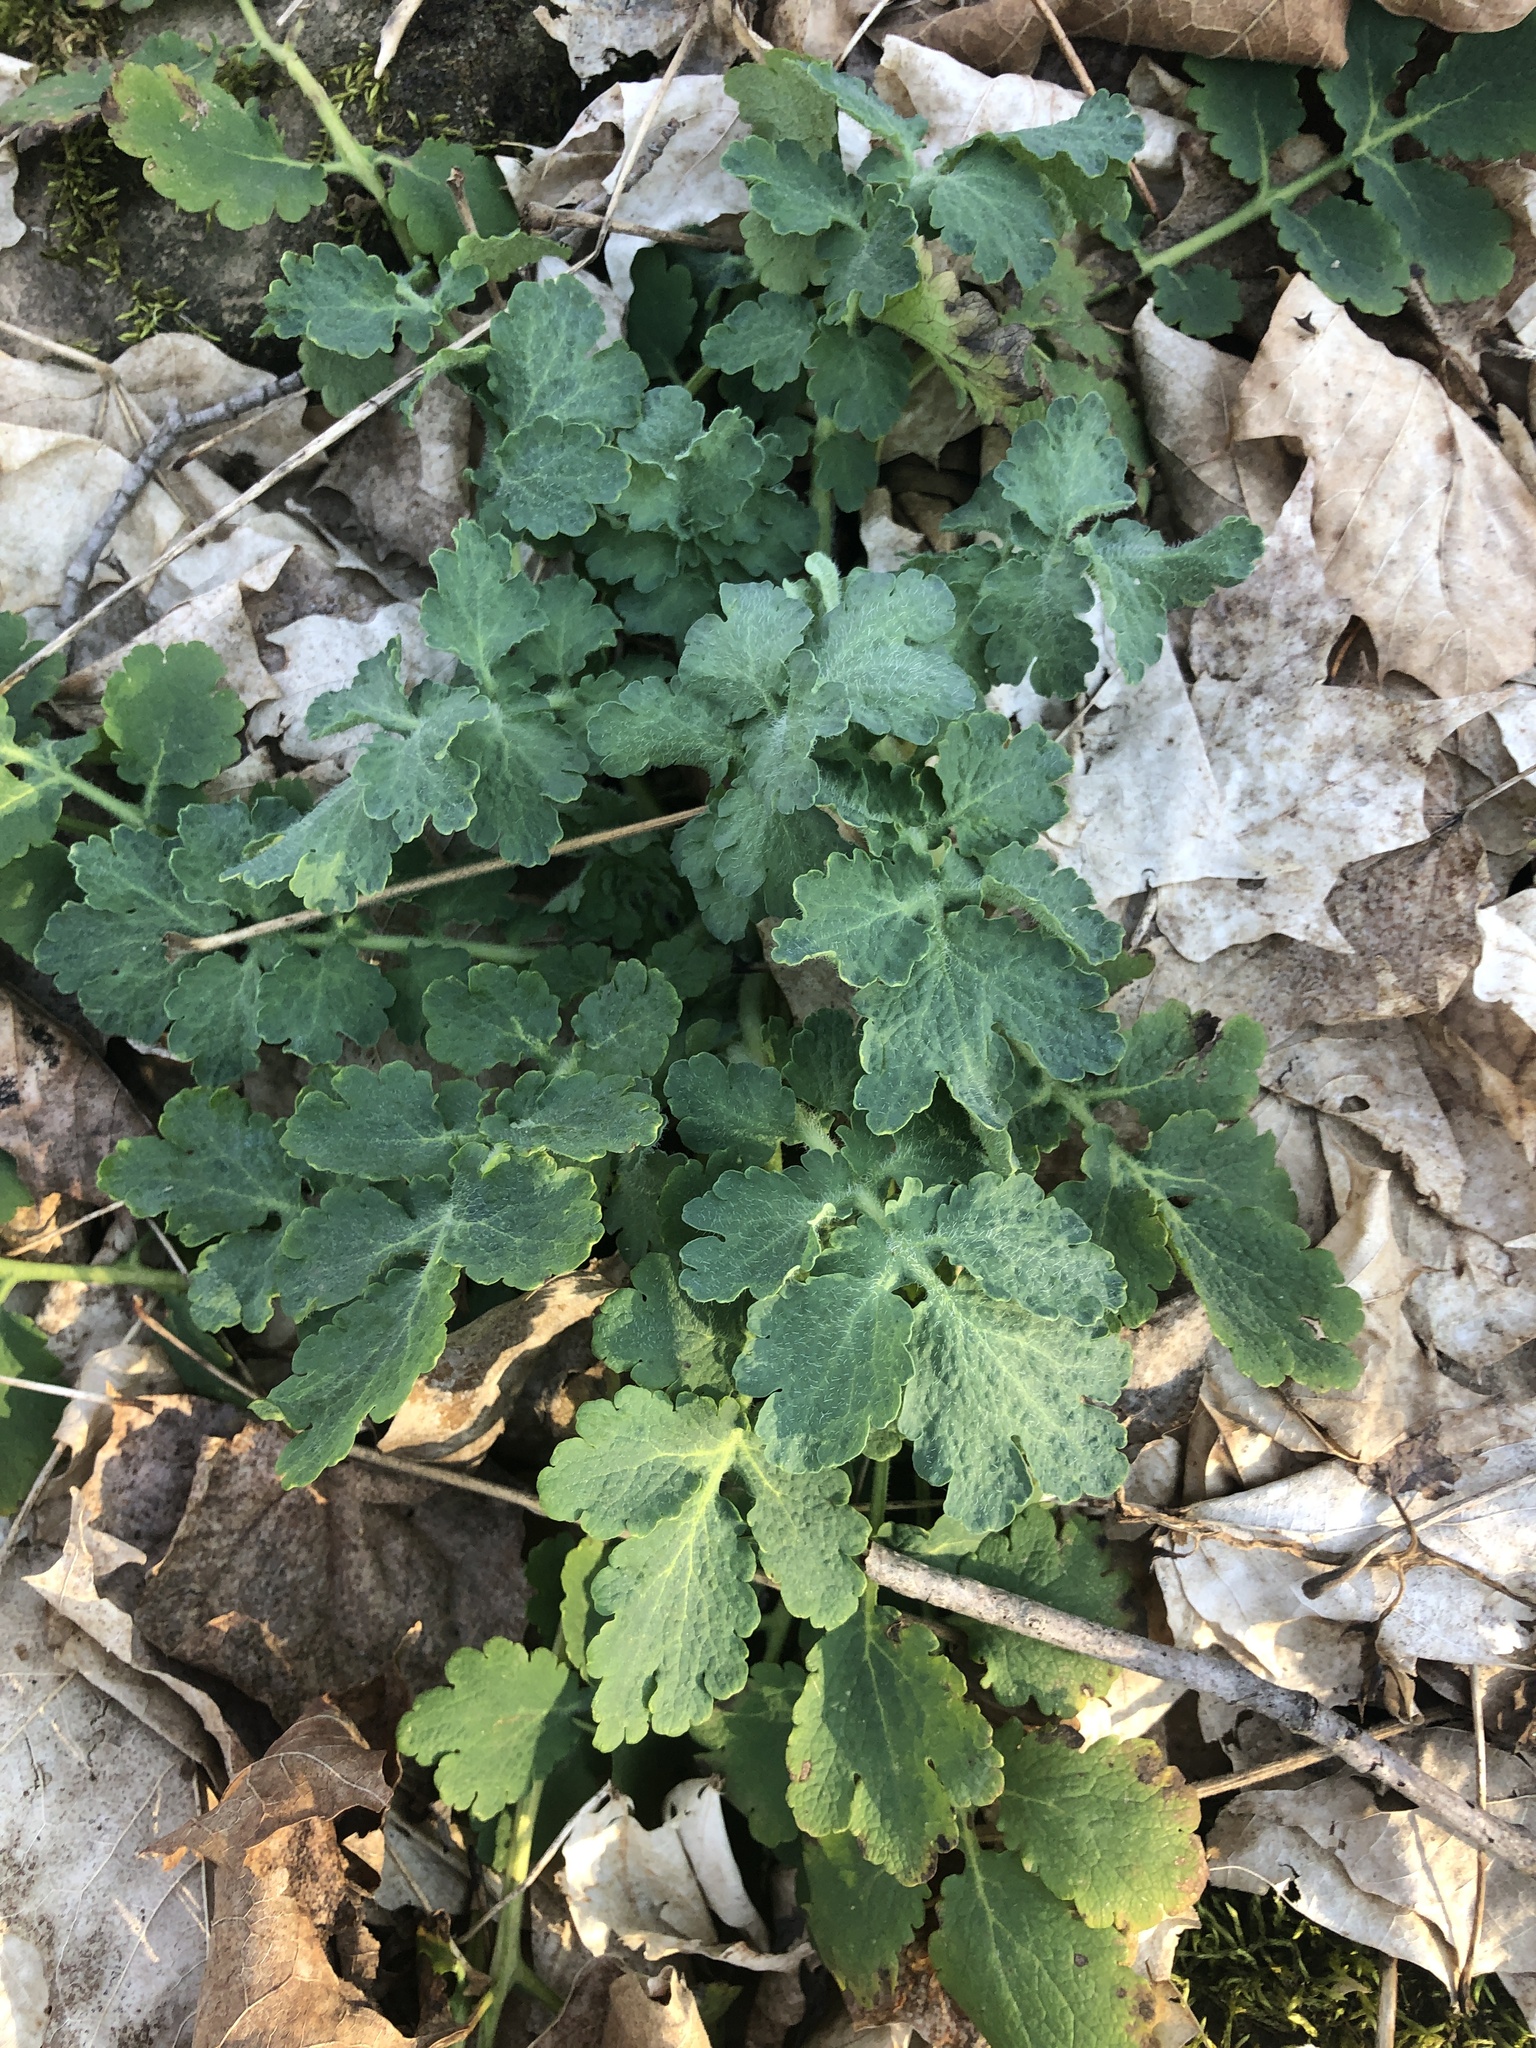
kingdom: Plantae
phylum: Tracheophyta
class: Magnoliopsida
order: Ranunculales
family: Papaveraceae
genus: Chelidonium
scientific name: Chelidonium majus
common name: Greater celandine
